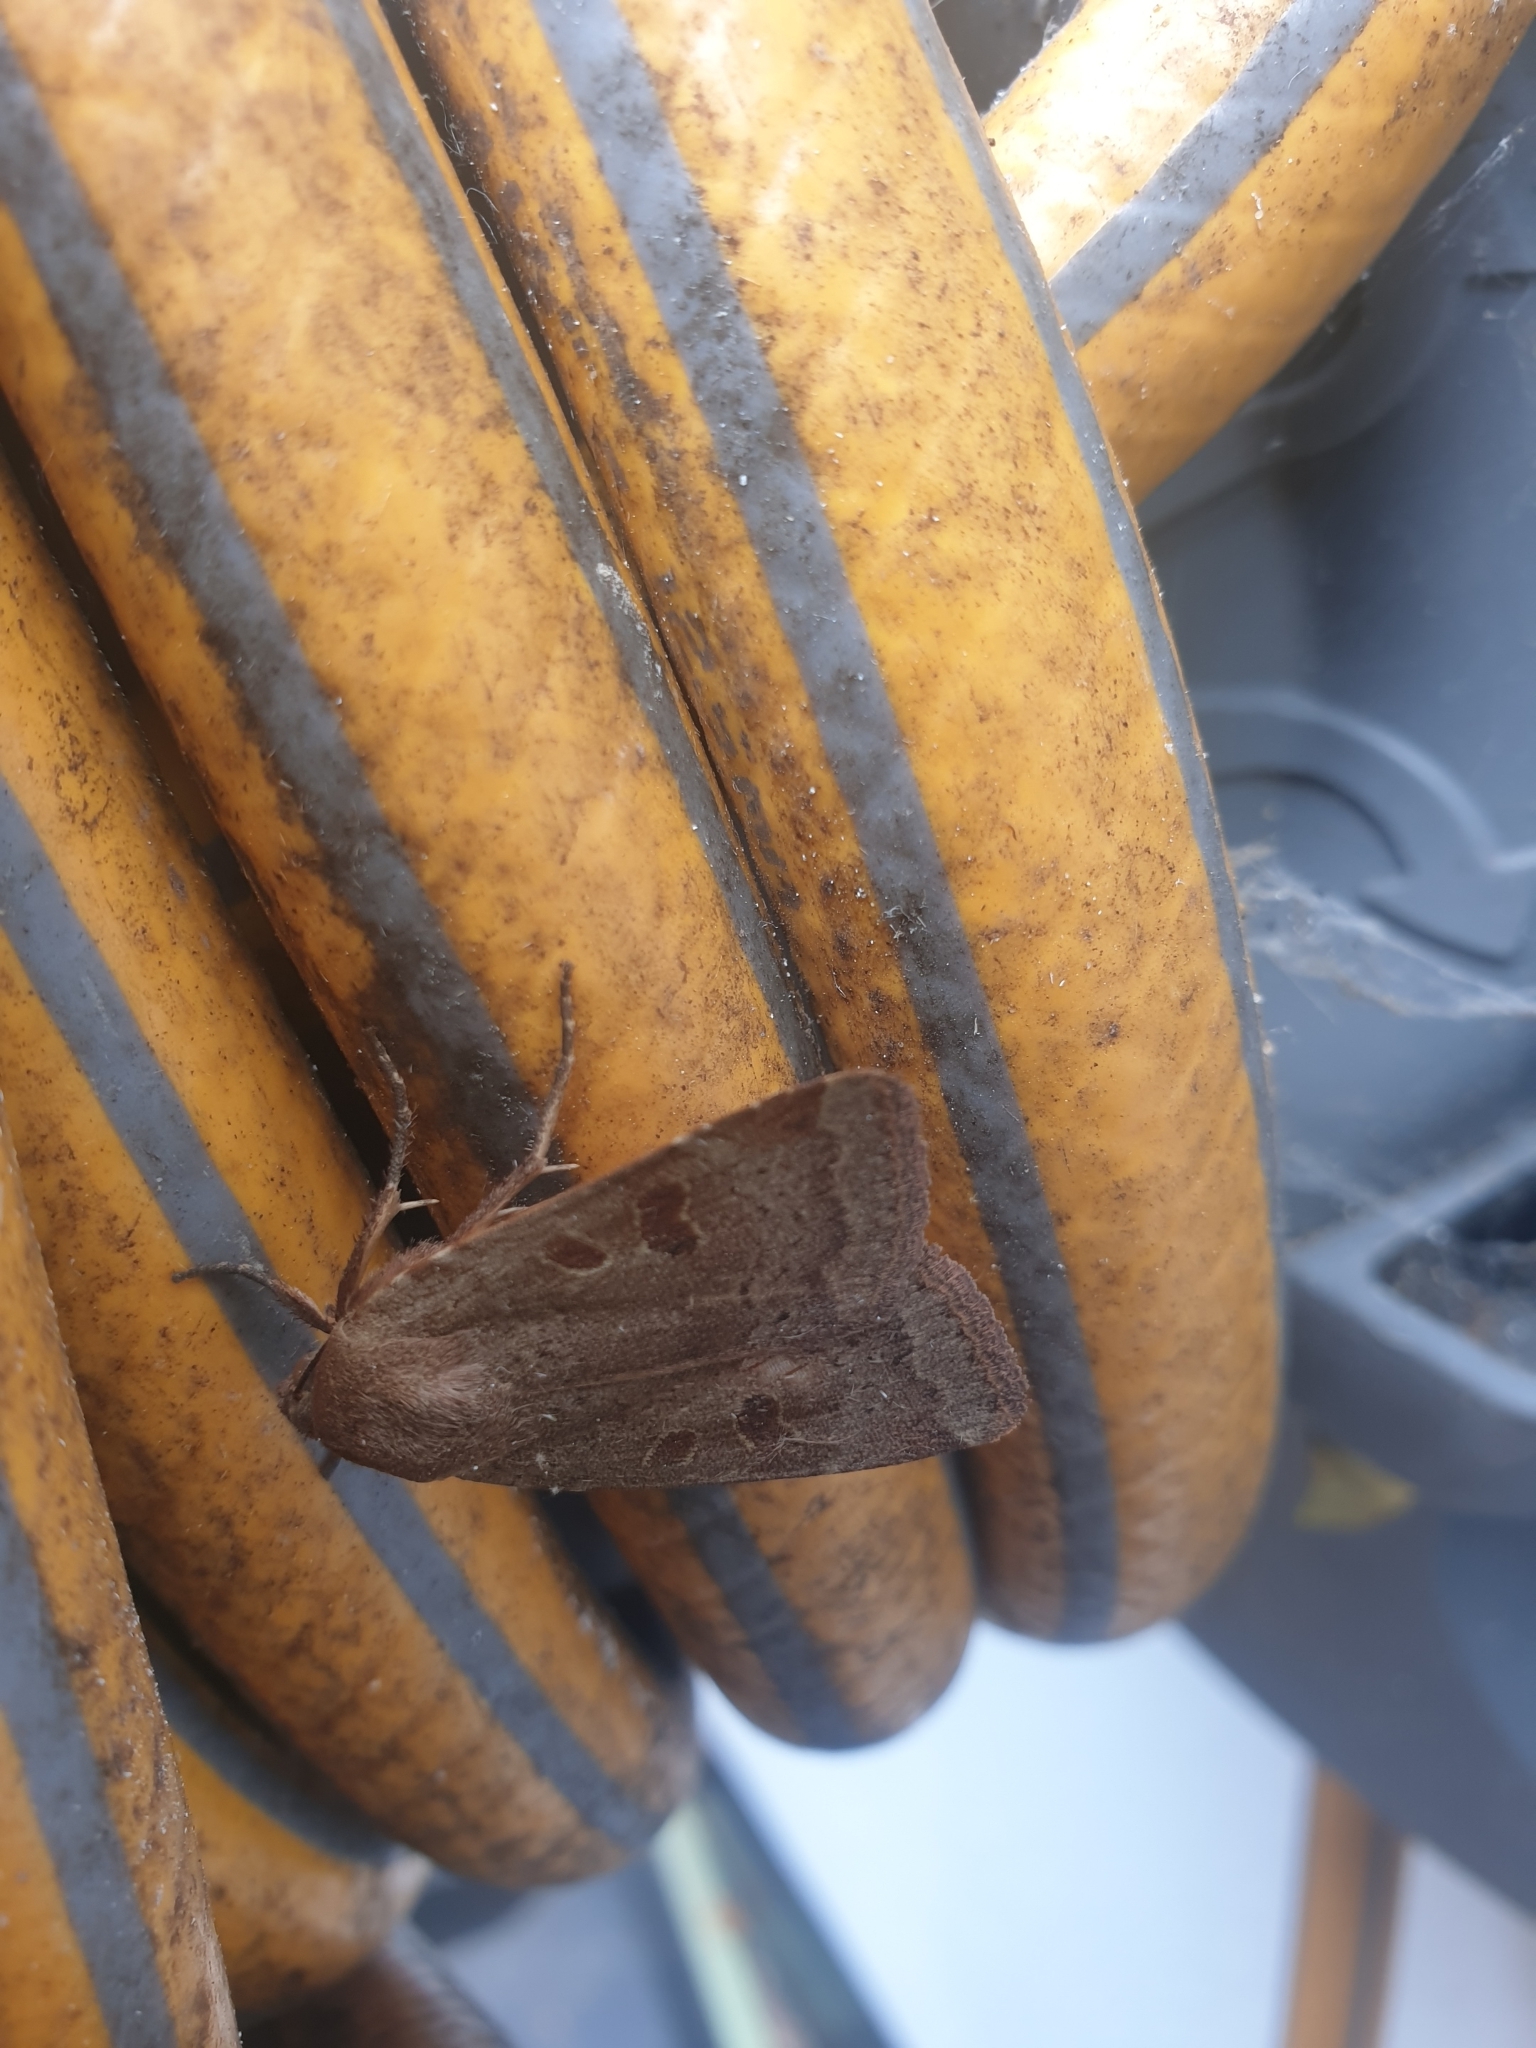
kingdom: Animalia
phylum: Arthropoda
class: Insecta
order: Lepidoptera
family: Noctuidae
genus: Noctua
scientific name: Noctua comes
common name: Lesser yellow underwing
